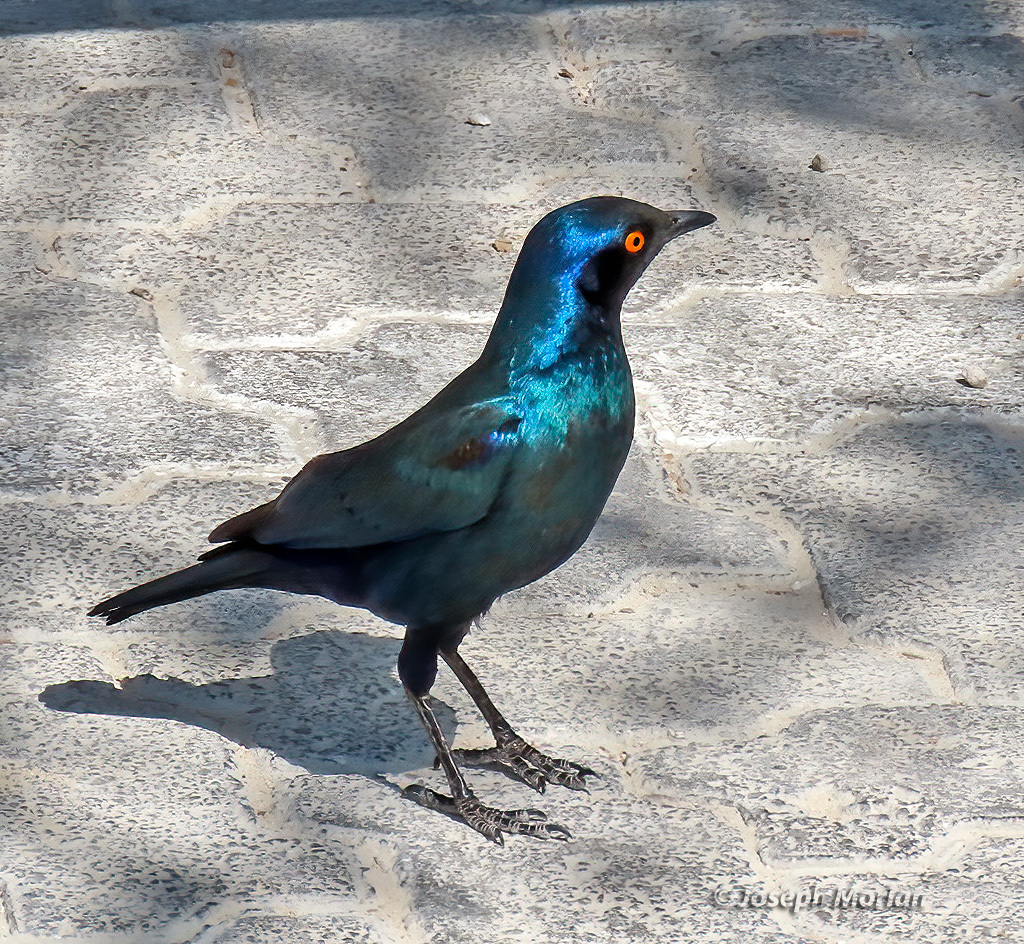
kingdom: Animalia
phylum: Chordata
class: Aves
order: Passeriformes
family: Sturnidae
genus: Lamprotornis
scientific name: Lamprotornis nitens
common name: Cape starling
